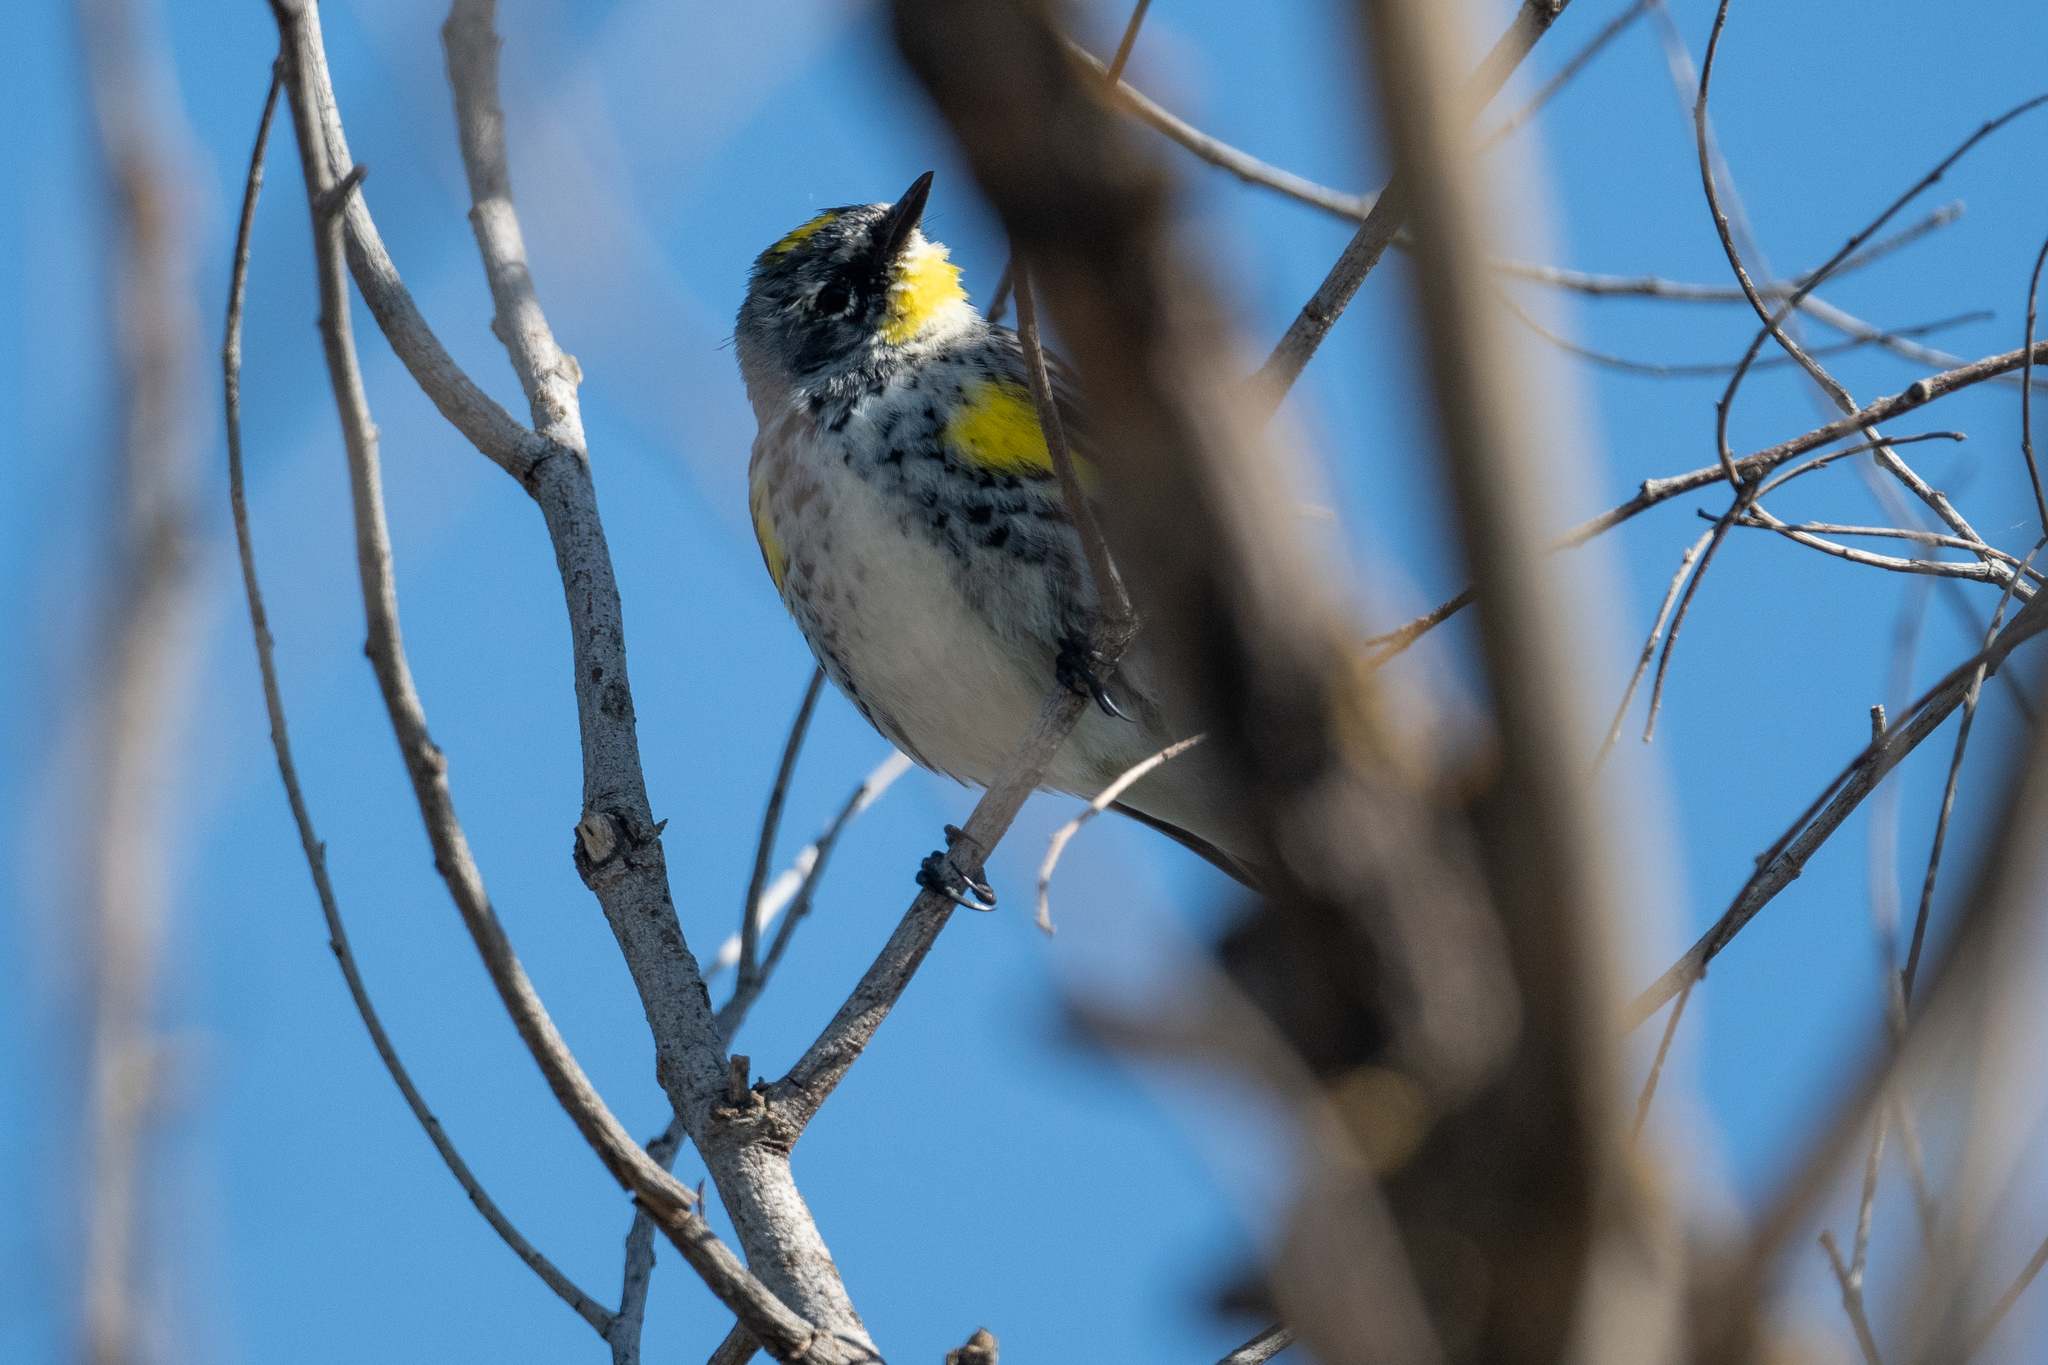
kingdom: Animalia
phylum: Chordata
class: Aves
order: Passeriformes
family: Parulidae
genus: Setophaga
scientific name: Setophaga coronata
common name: Myrtle warbler
